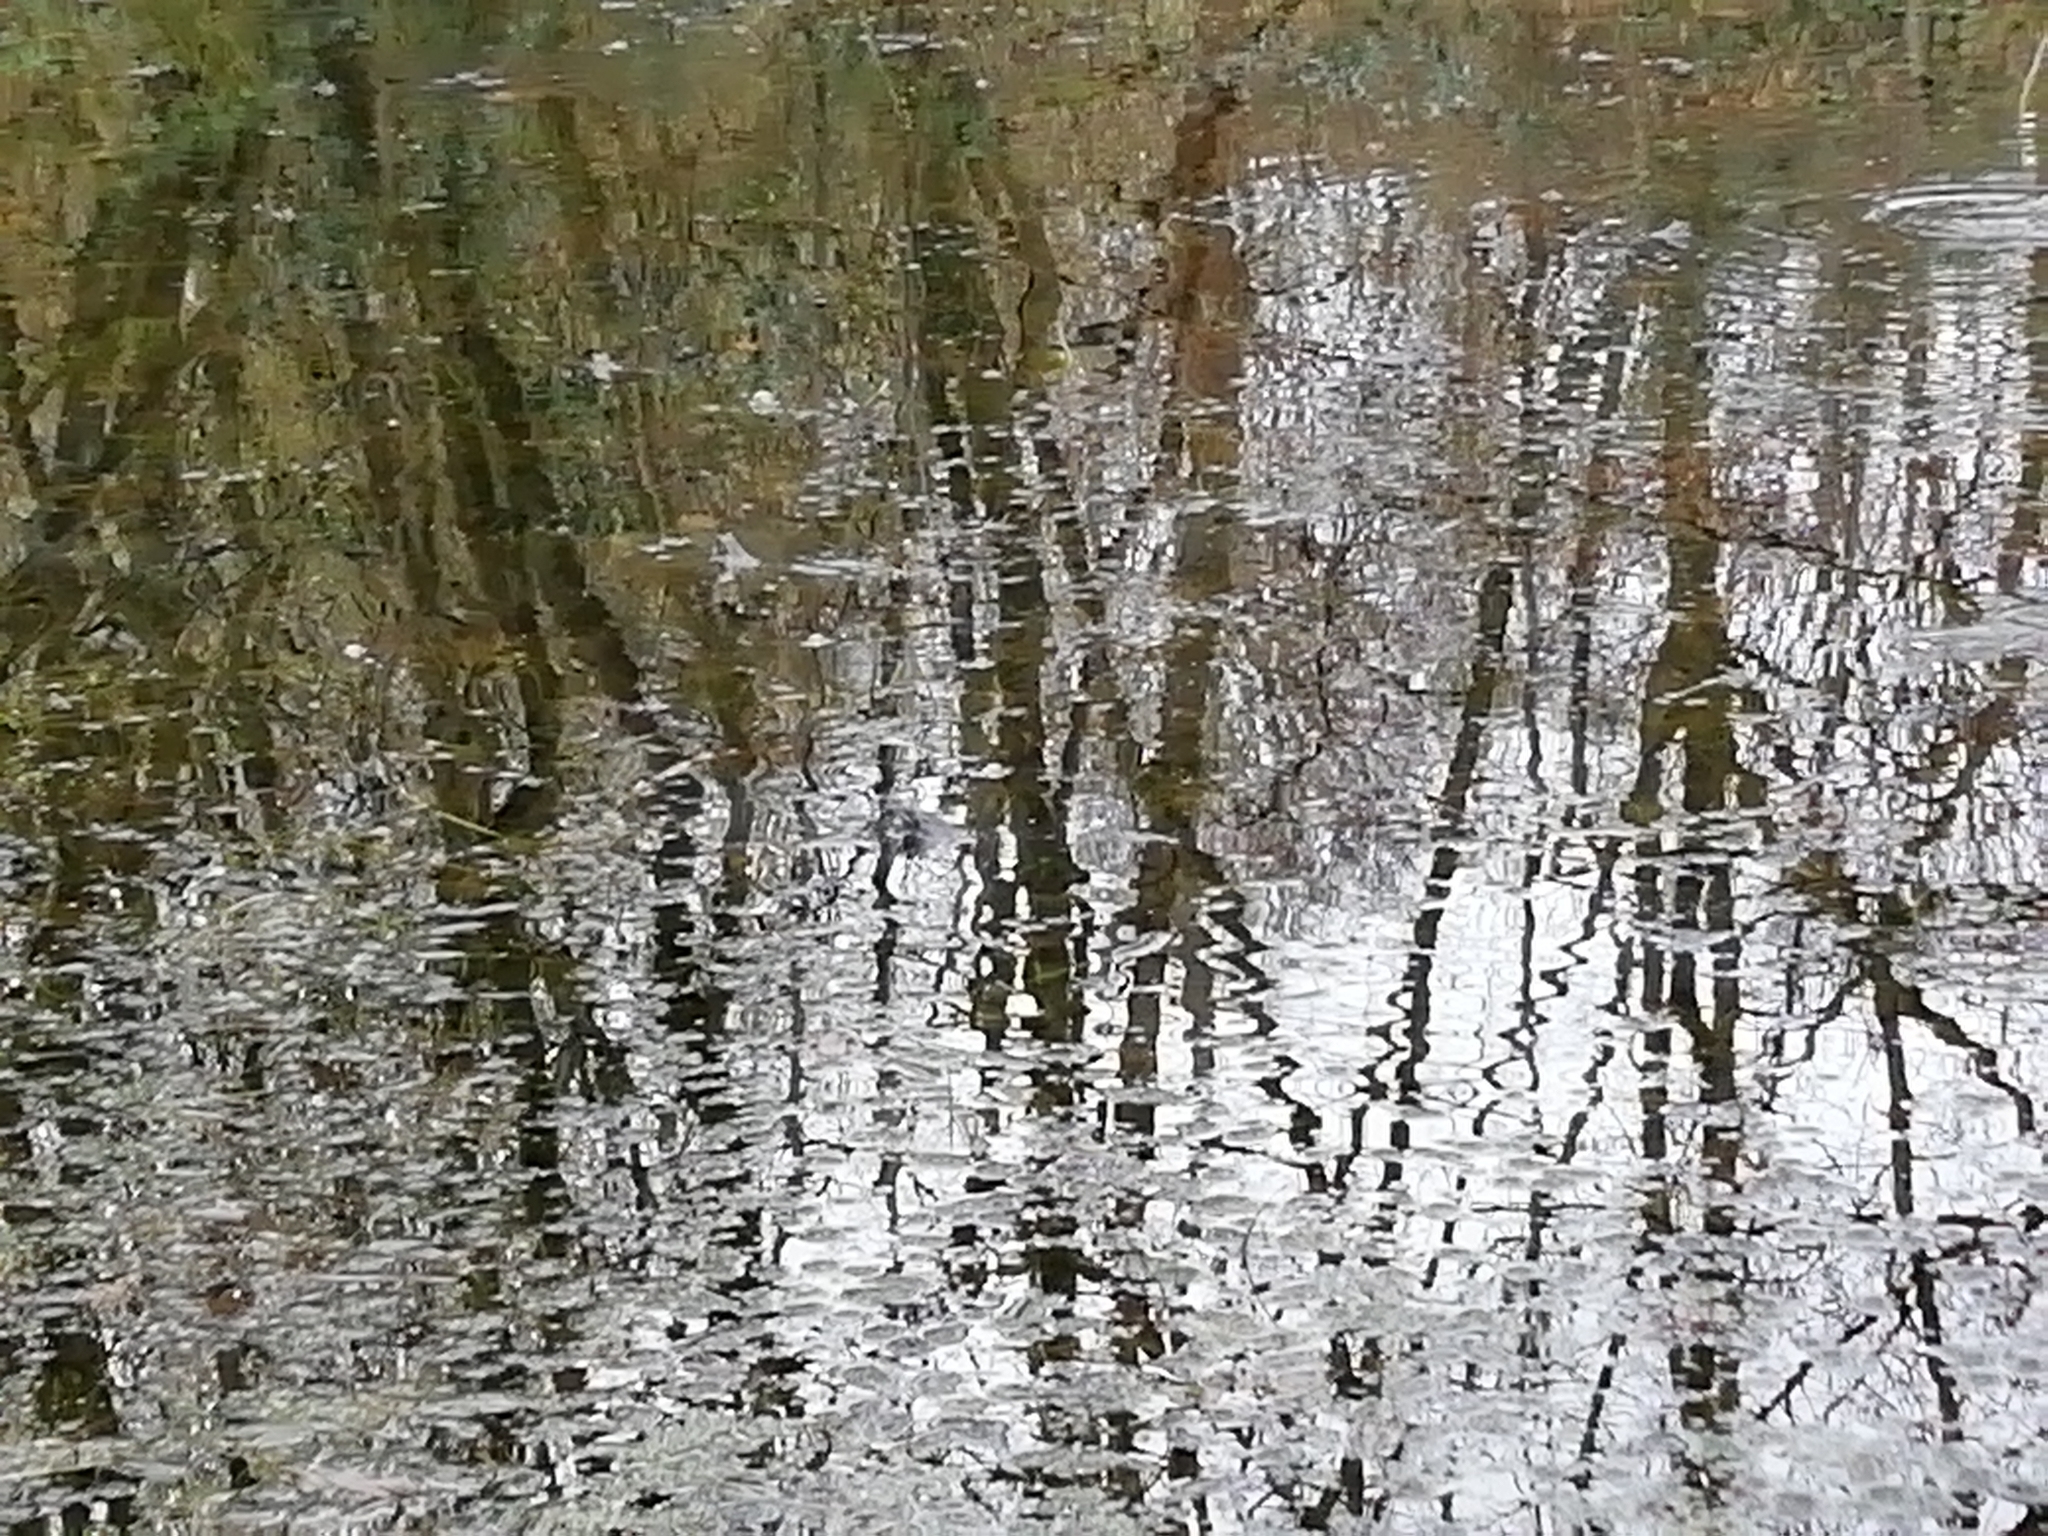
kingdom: Animalia
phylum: Chordata
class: Amphibia
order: Anura
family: Ranidae
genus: Rana
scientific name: Rana temporaria
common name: Common frog
